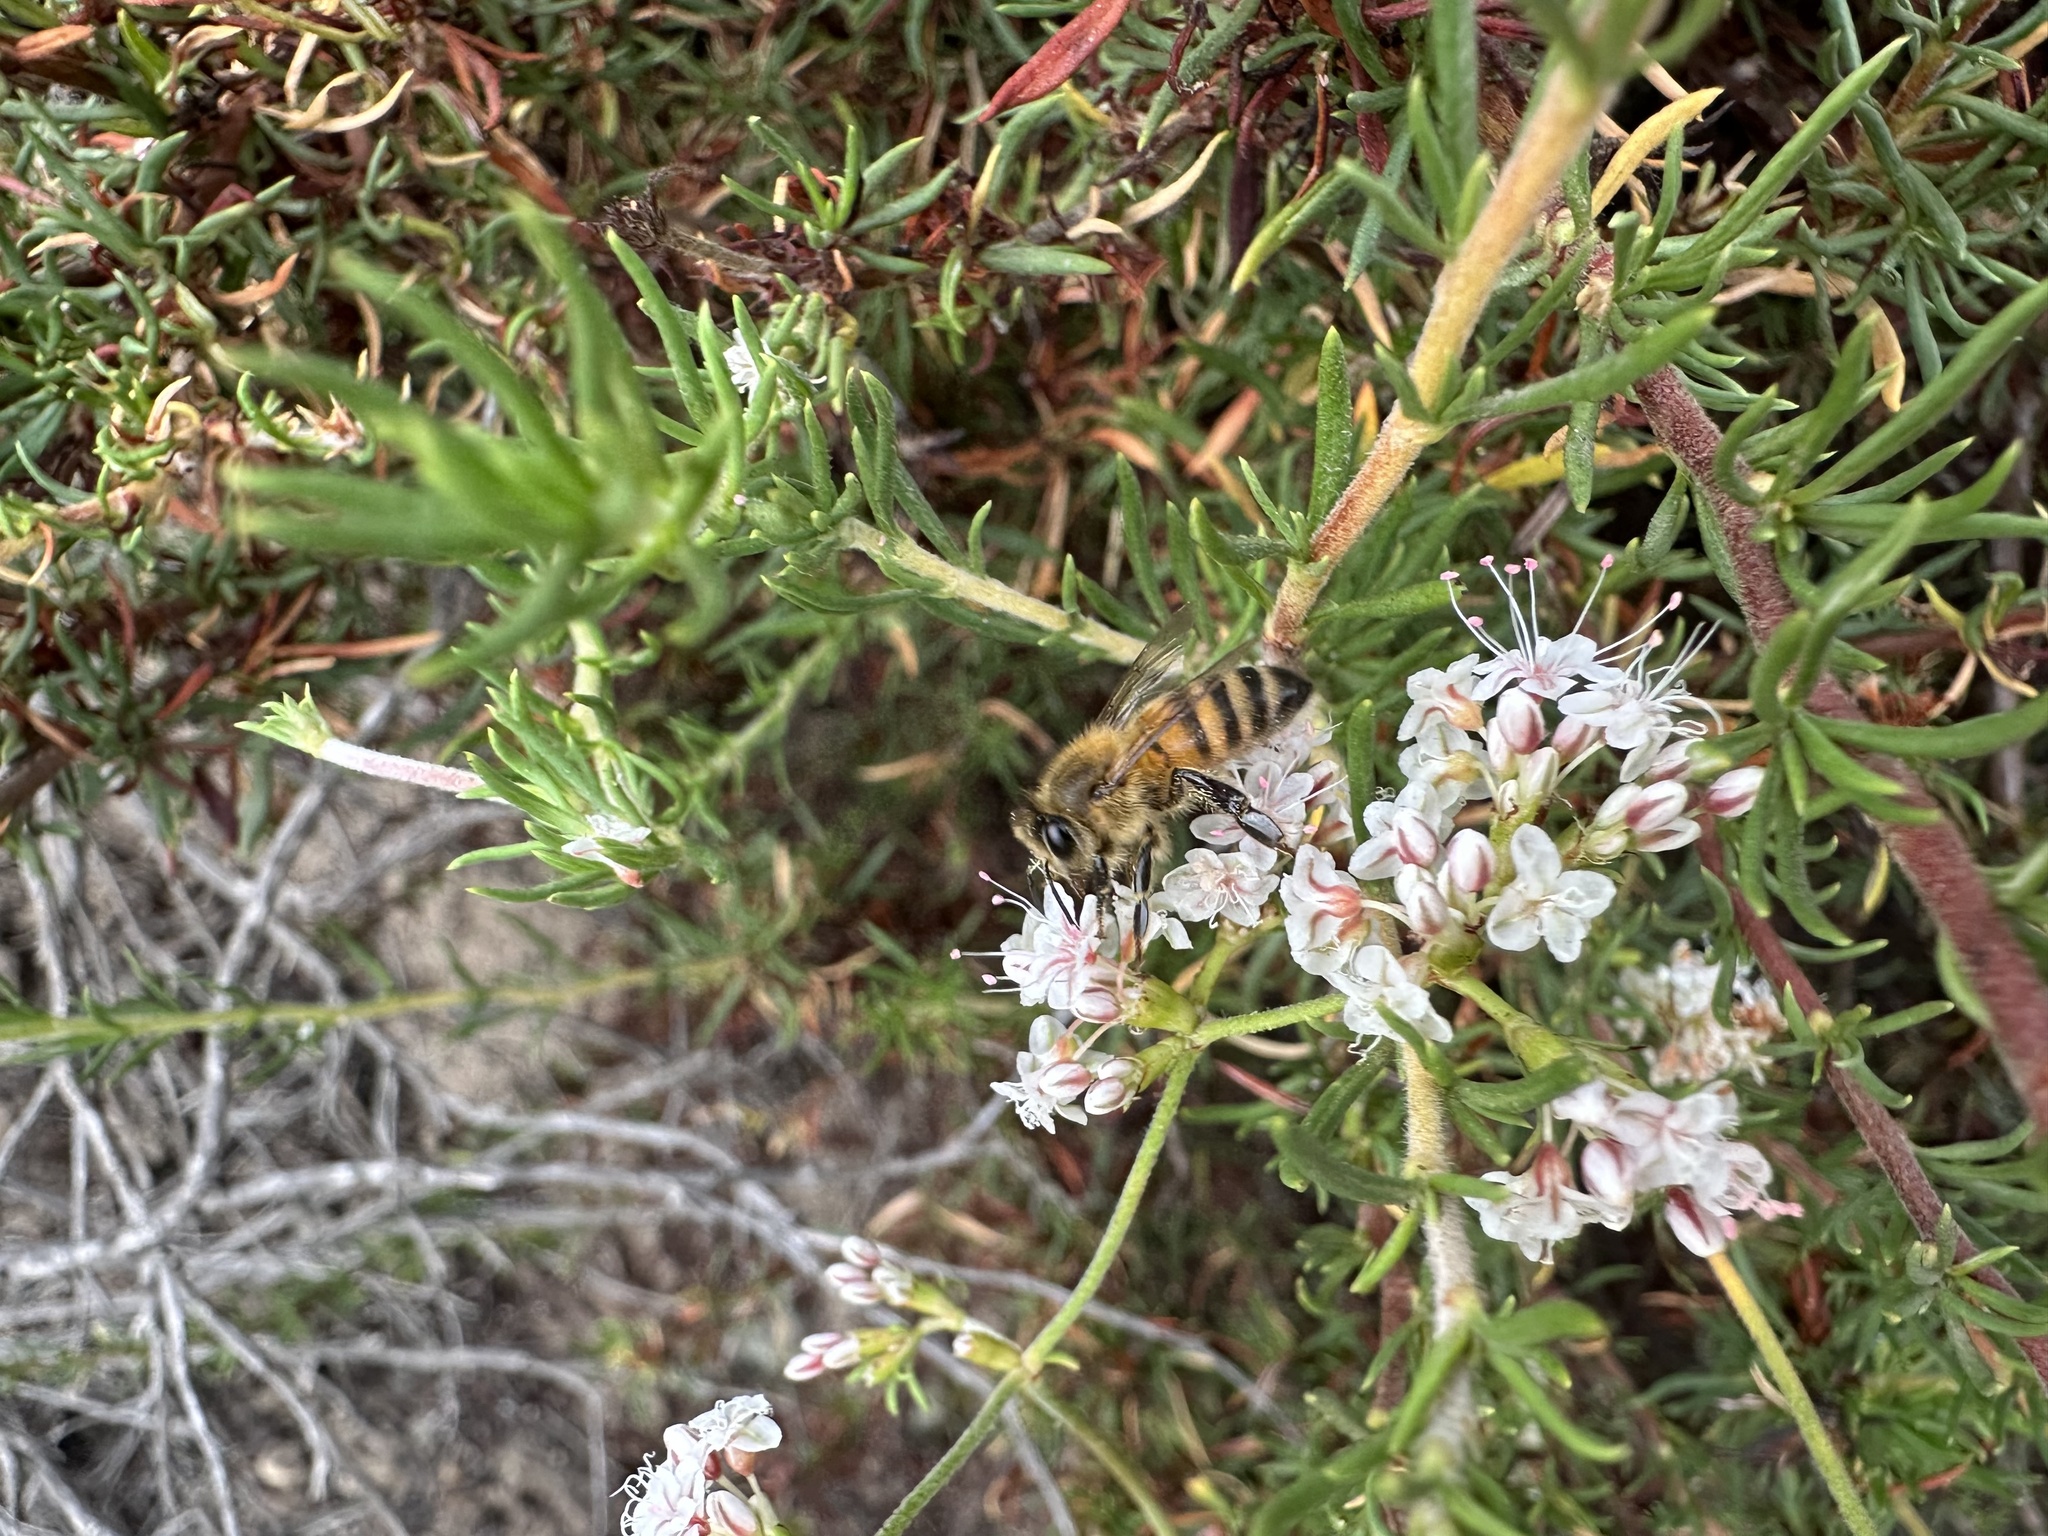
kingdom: Animalia
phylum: Arthropoda
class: Insecta
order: Hymenoptera
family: Apidae
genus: Apis
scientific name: Apis mellifera
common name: Honey bee
